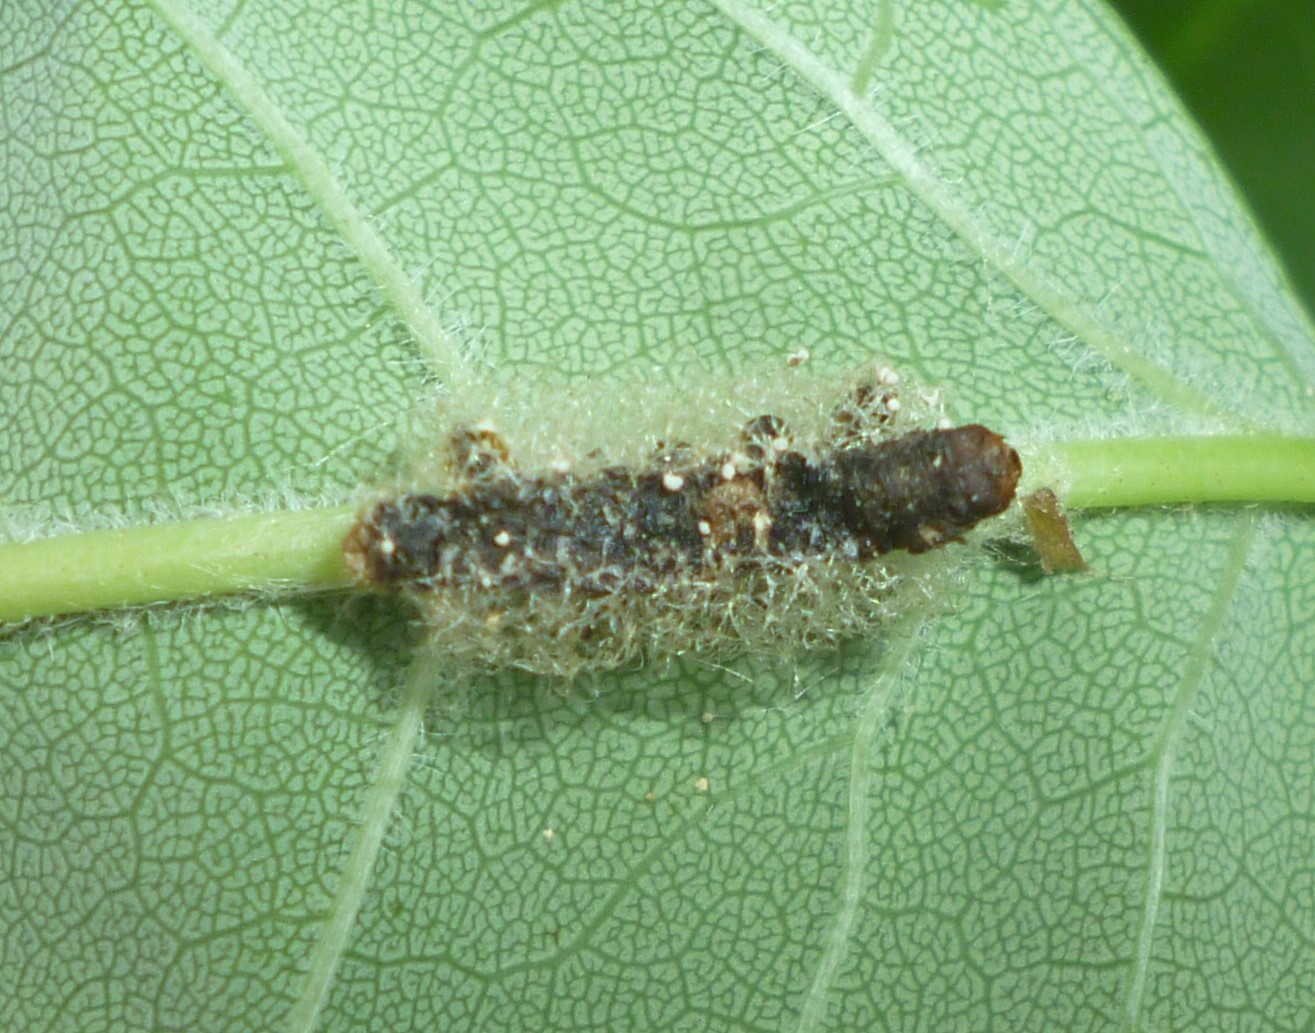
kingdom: Animalia
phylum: Arthropoda
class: Insecta
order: Hymenoptera
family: Eulophidae
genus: Euplectrus
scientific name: Euplectrus
